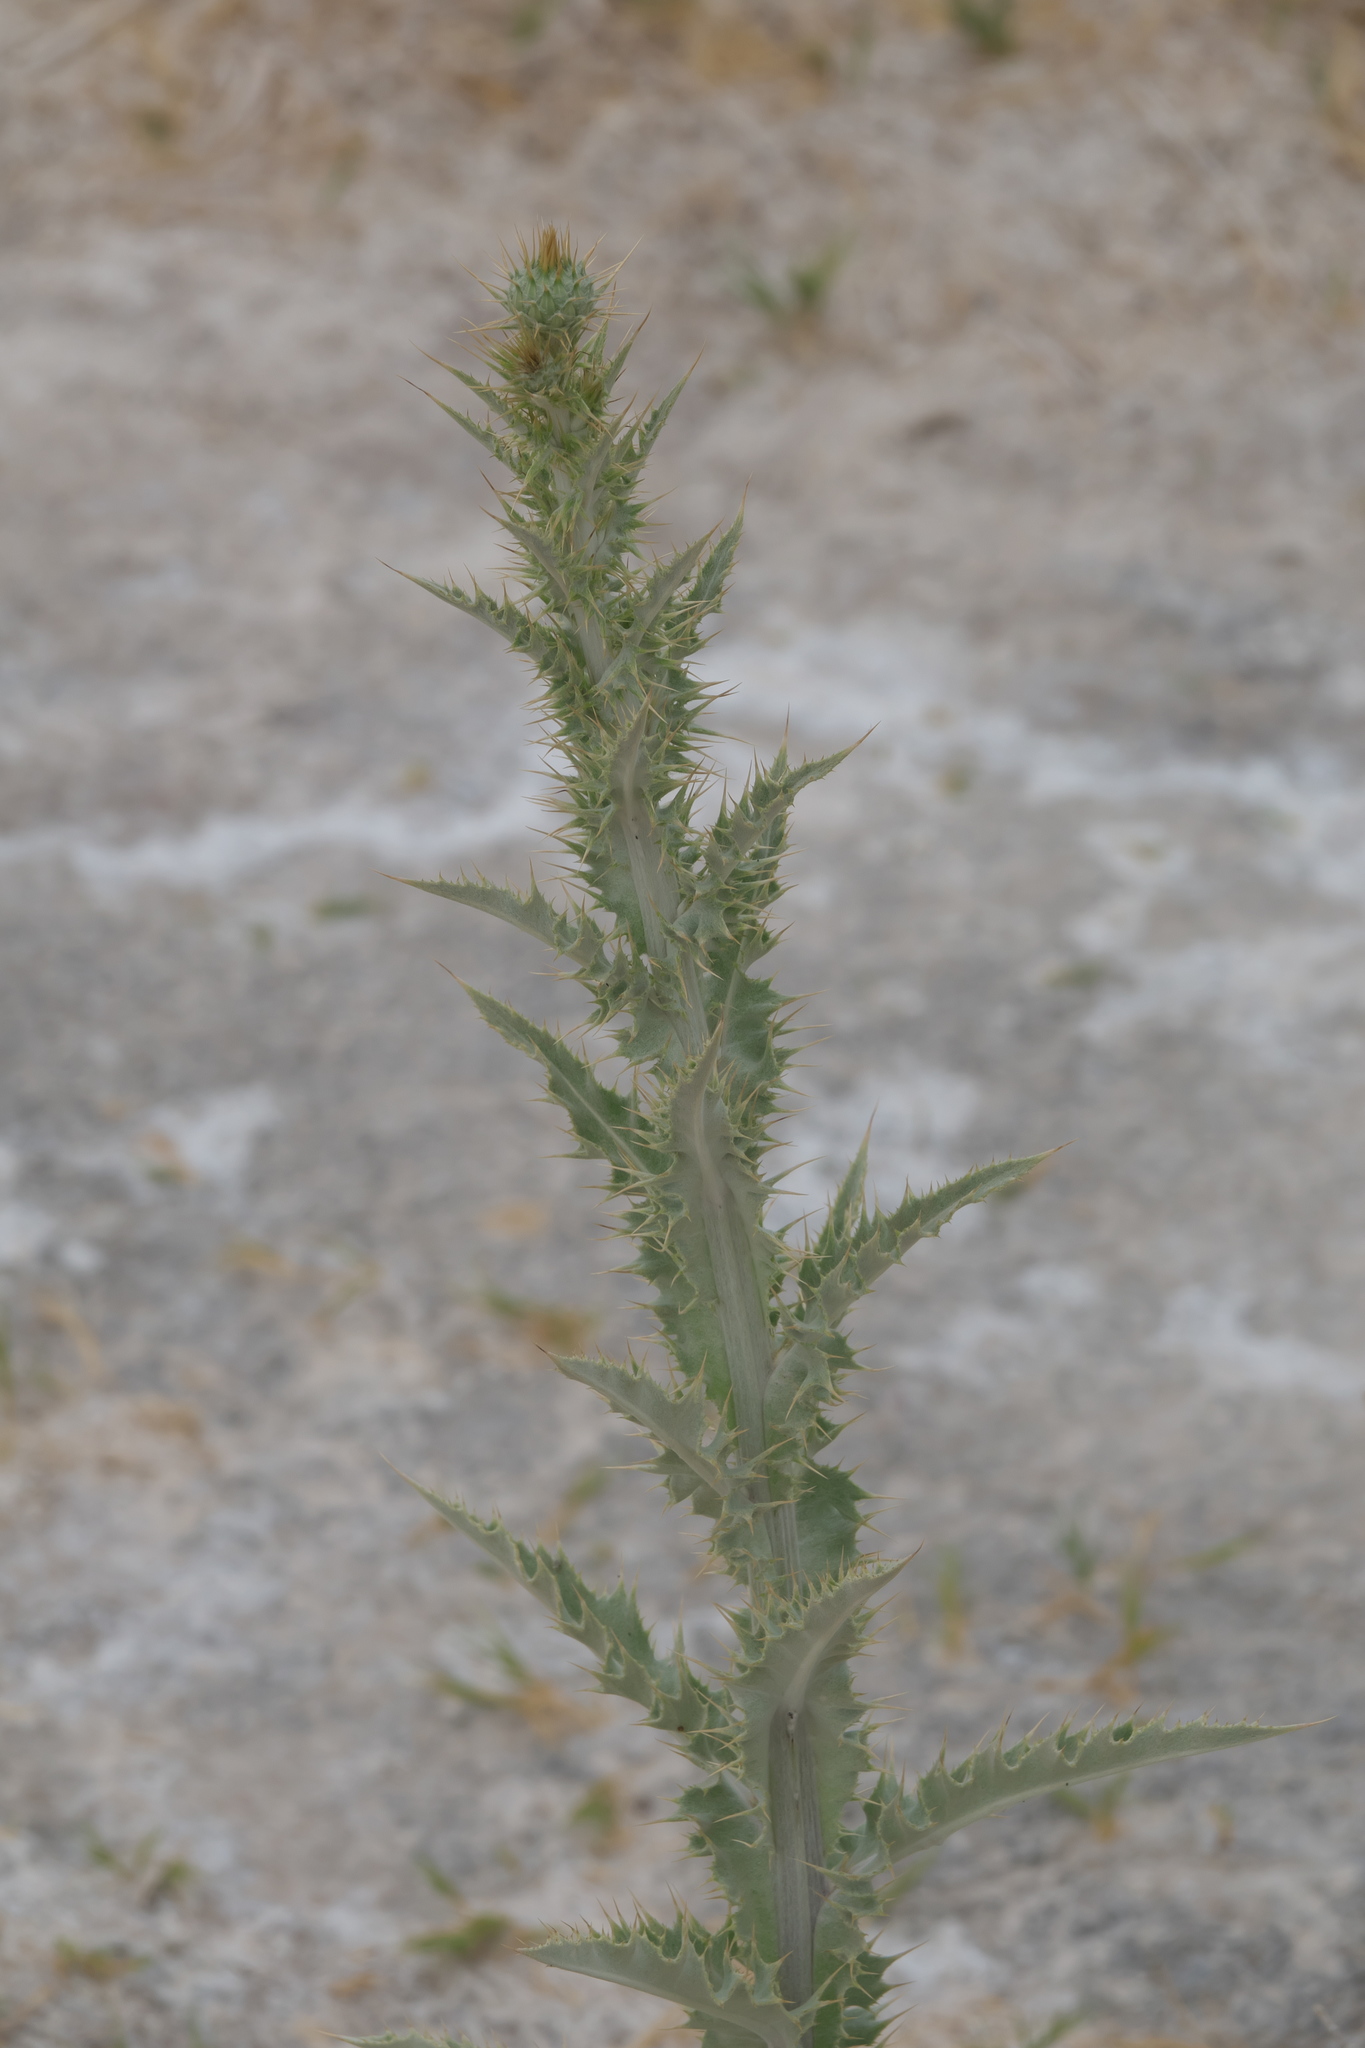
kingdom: Plantae
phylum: Tracheophyta
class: Magnoliopsida
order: Asterales
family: Asteraceae
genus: Cirsium
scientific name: Cirsium mohavense
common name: Mojave thistle
